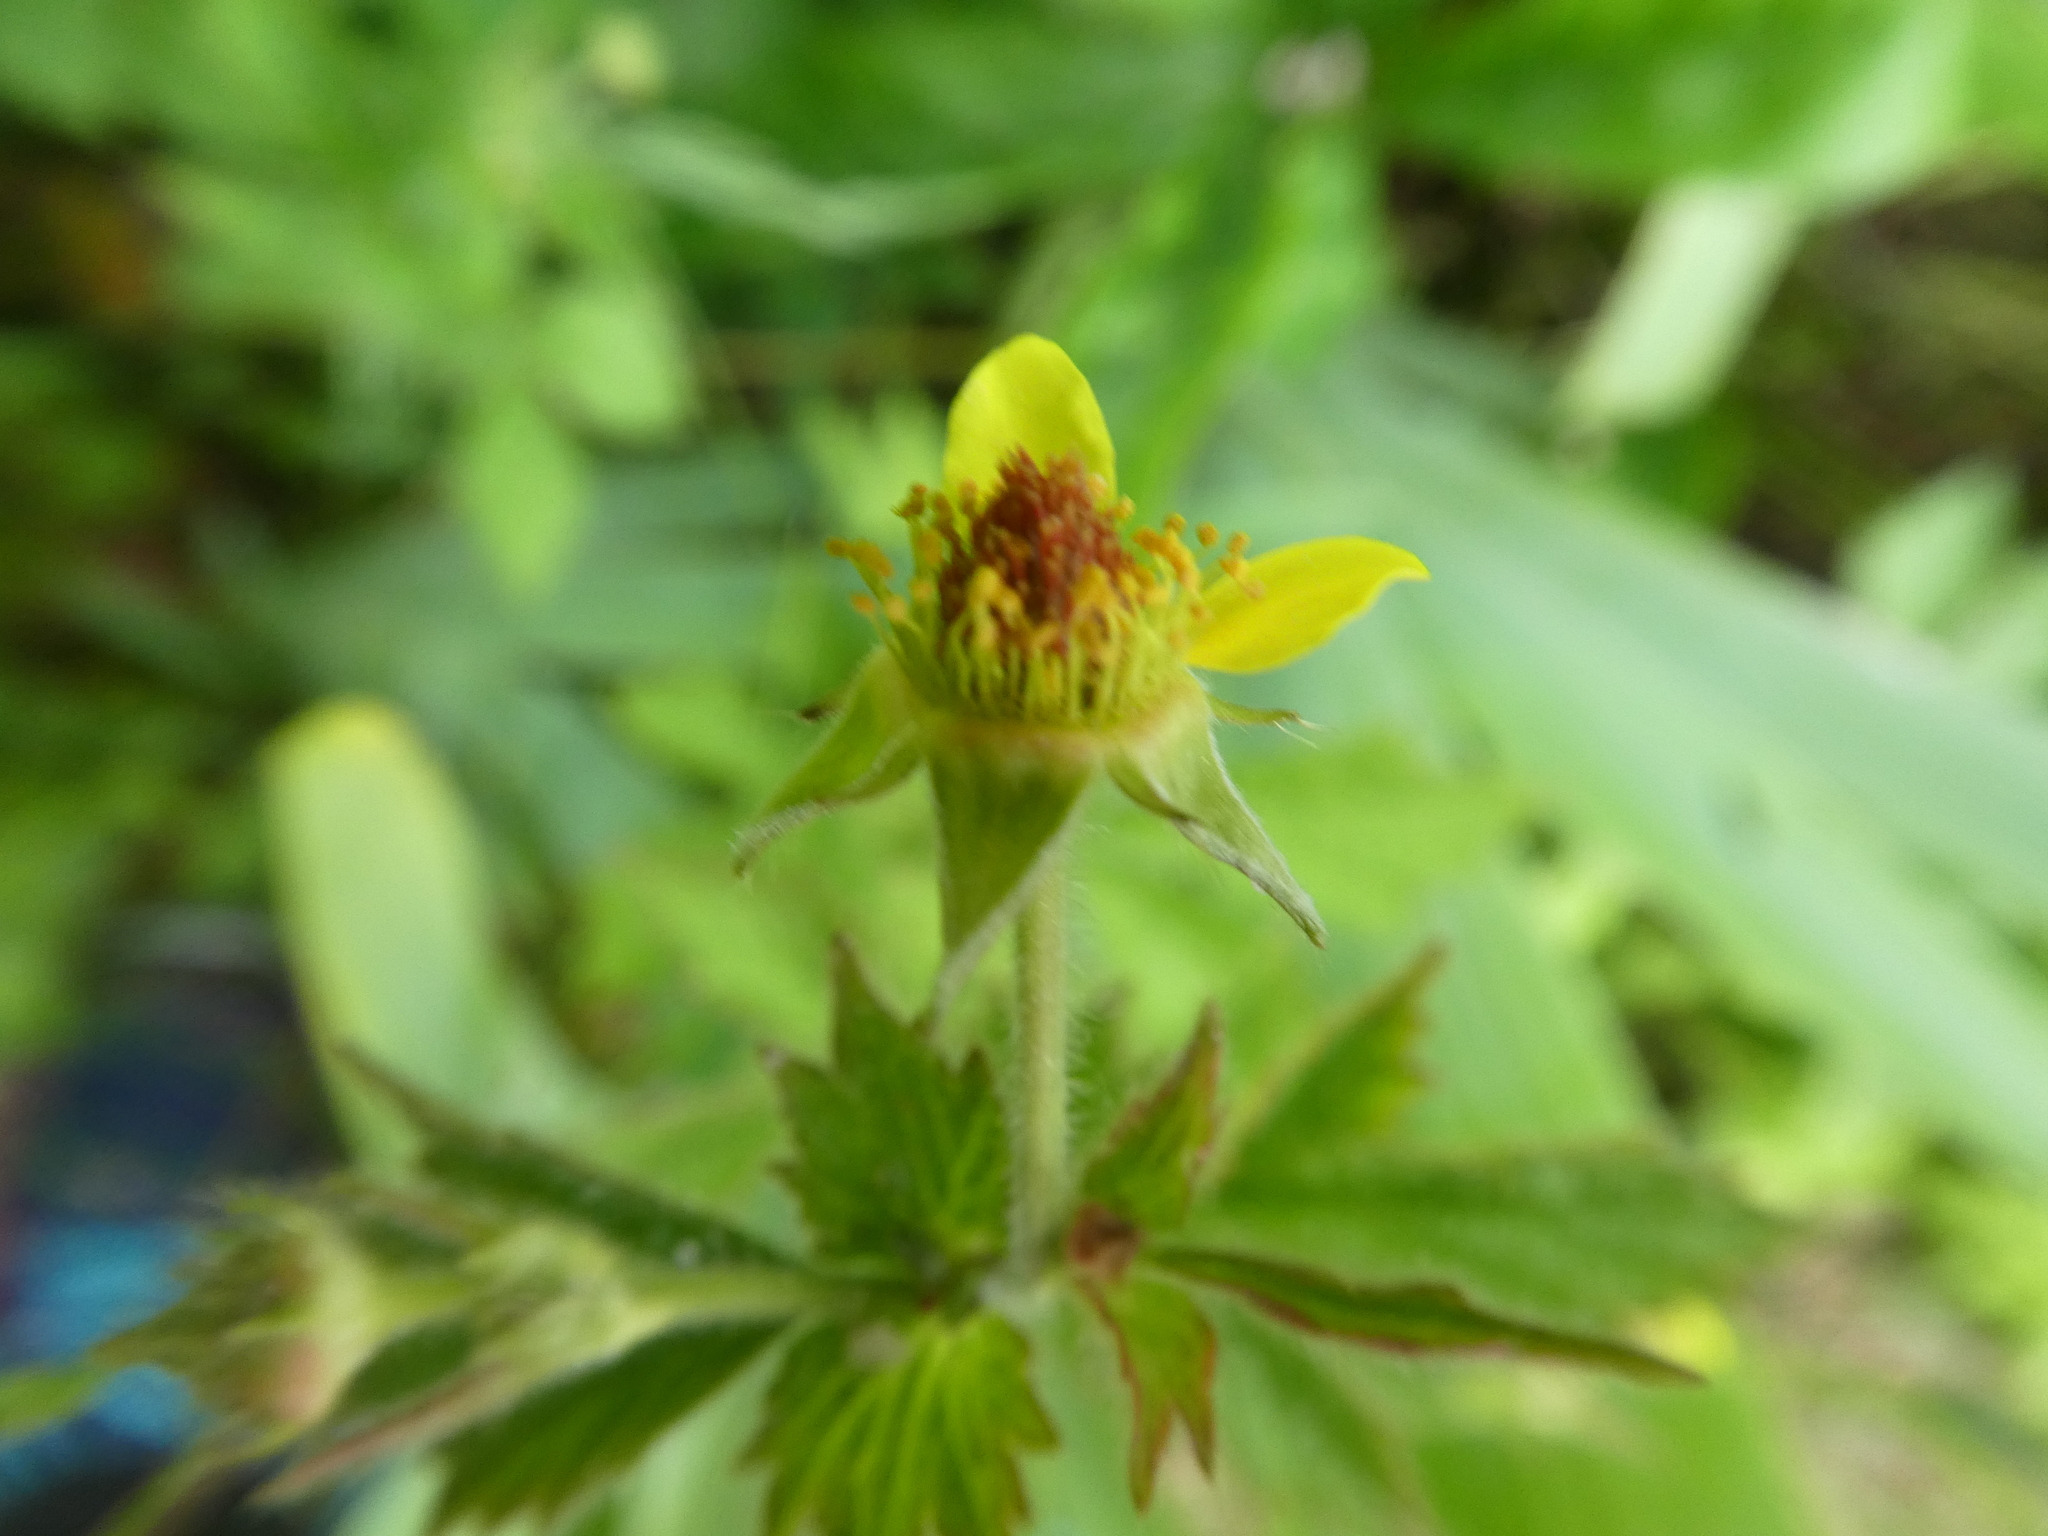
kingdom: Plantae
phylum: Tracheophyta
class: Magnoliopsida
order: Rosales
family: Rosaceae
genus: Geum
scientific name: Geum urbanum
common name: Wood avens
